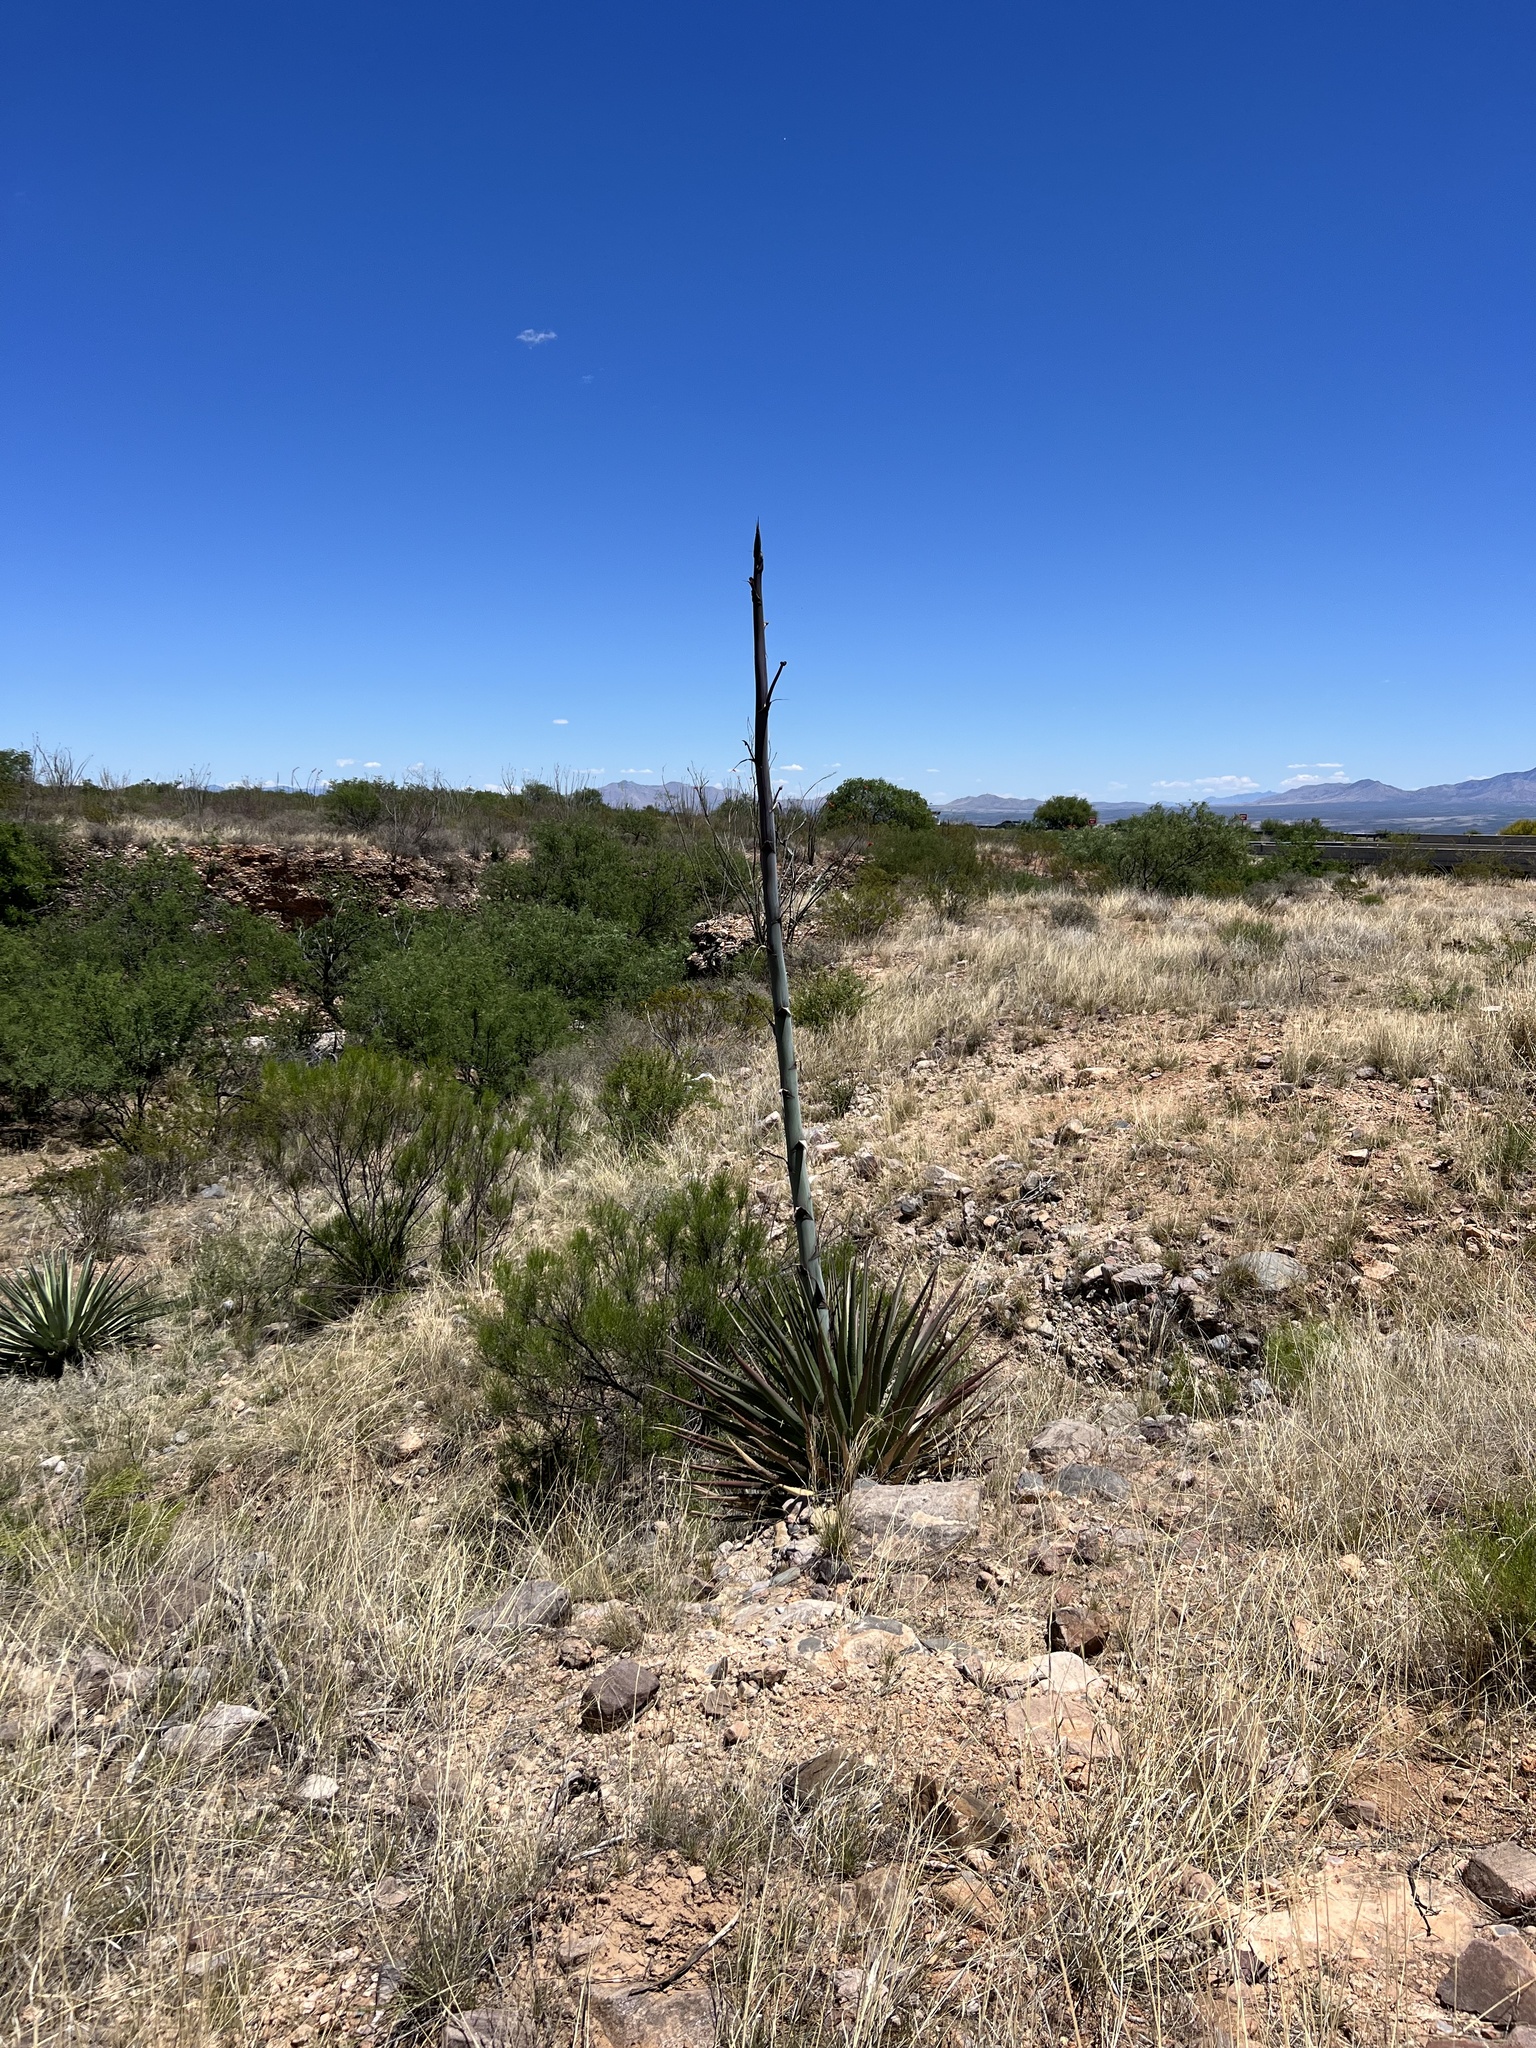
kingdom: Plantae
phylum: Tracheophyta
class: Liliopsida
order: Asparagales
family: Asparagaceae
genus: Agave
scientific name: Agave palmeri
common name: Palmer agave
